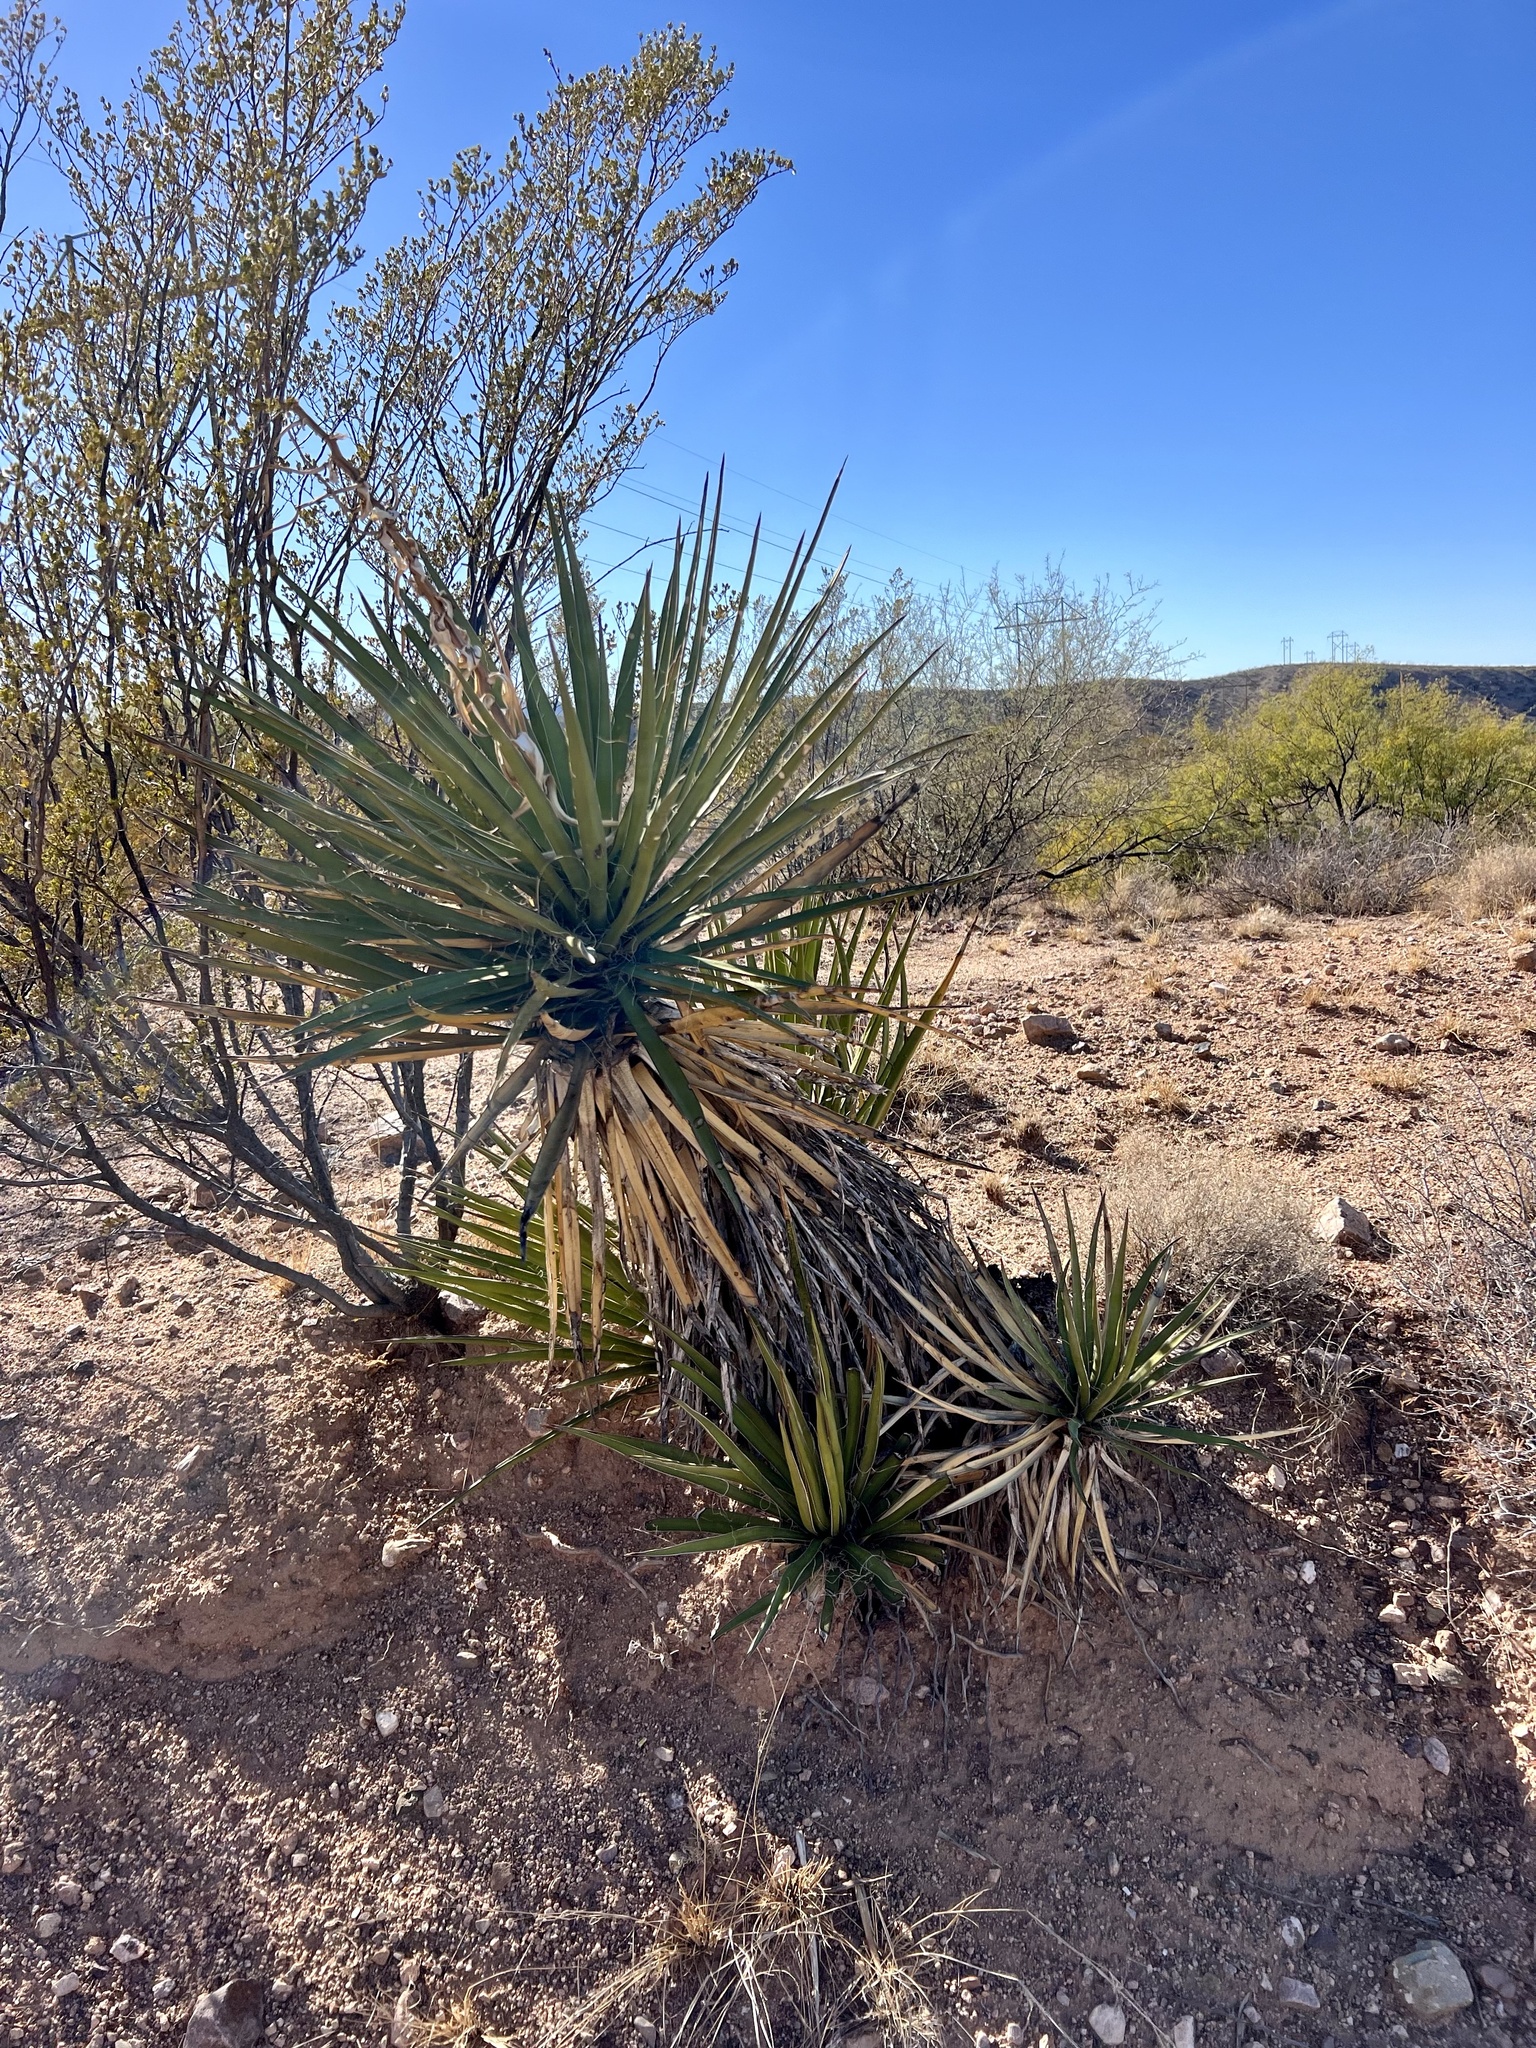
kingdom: Plantae
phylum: Tracheophyta
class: Liliopsida
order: Asparagales
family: Asparagaceae
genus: Yucca
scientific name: Yucca baccata
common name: Banana yucca
